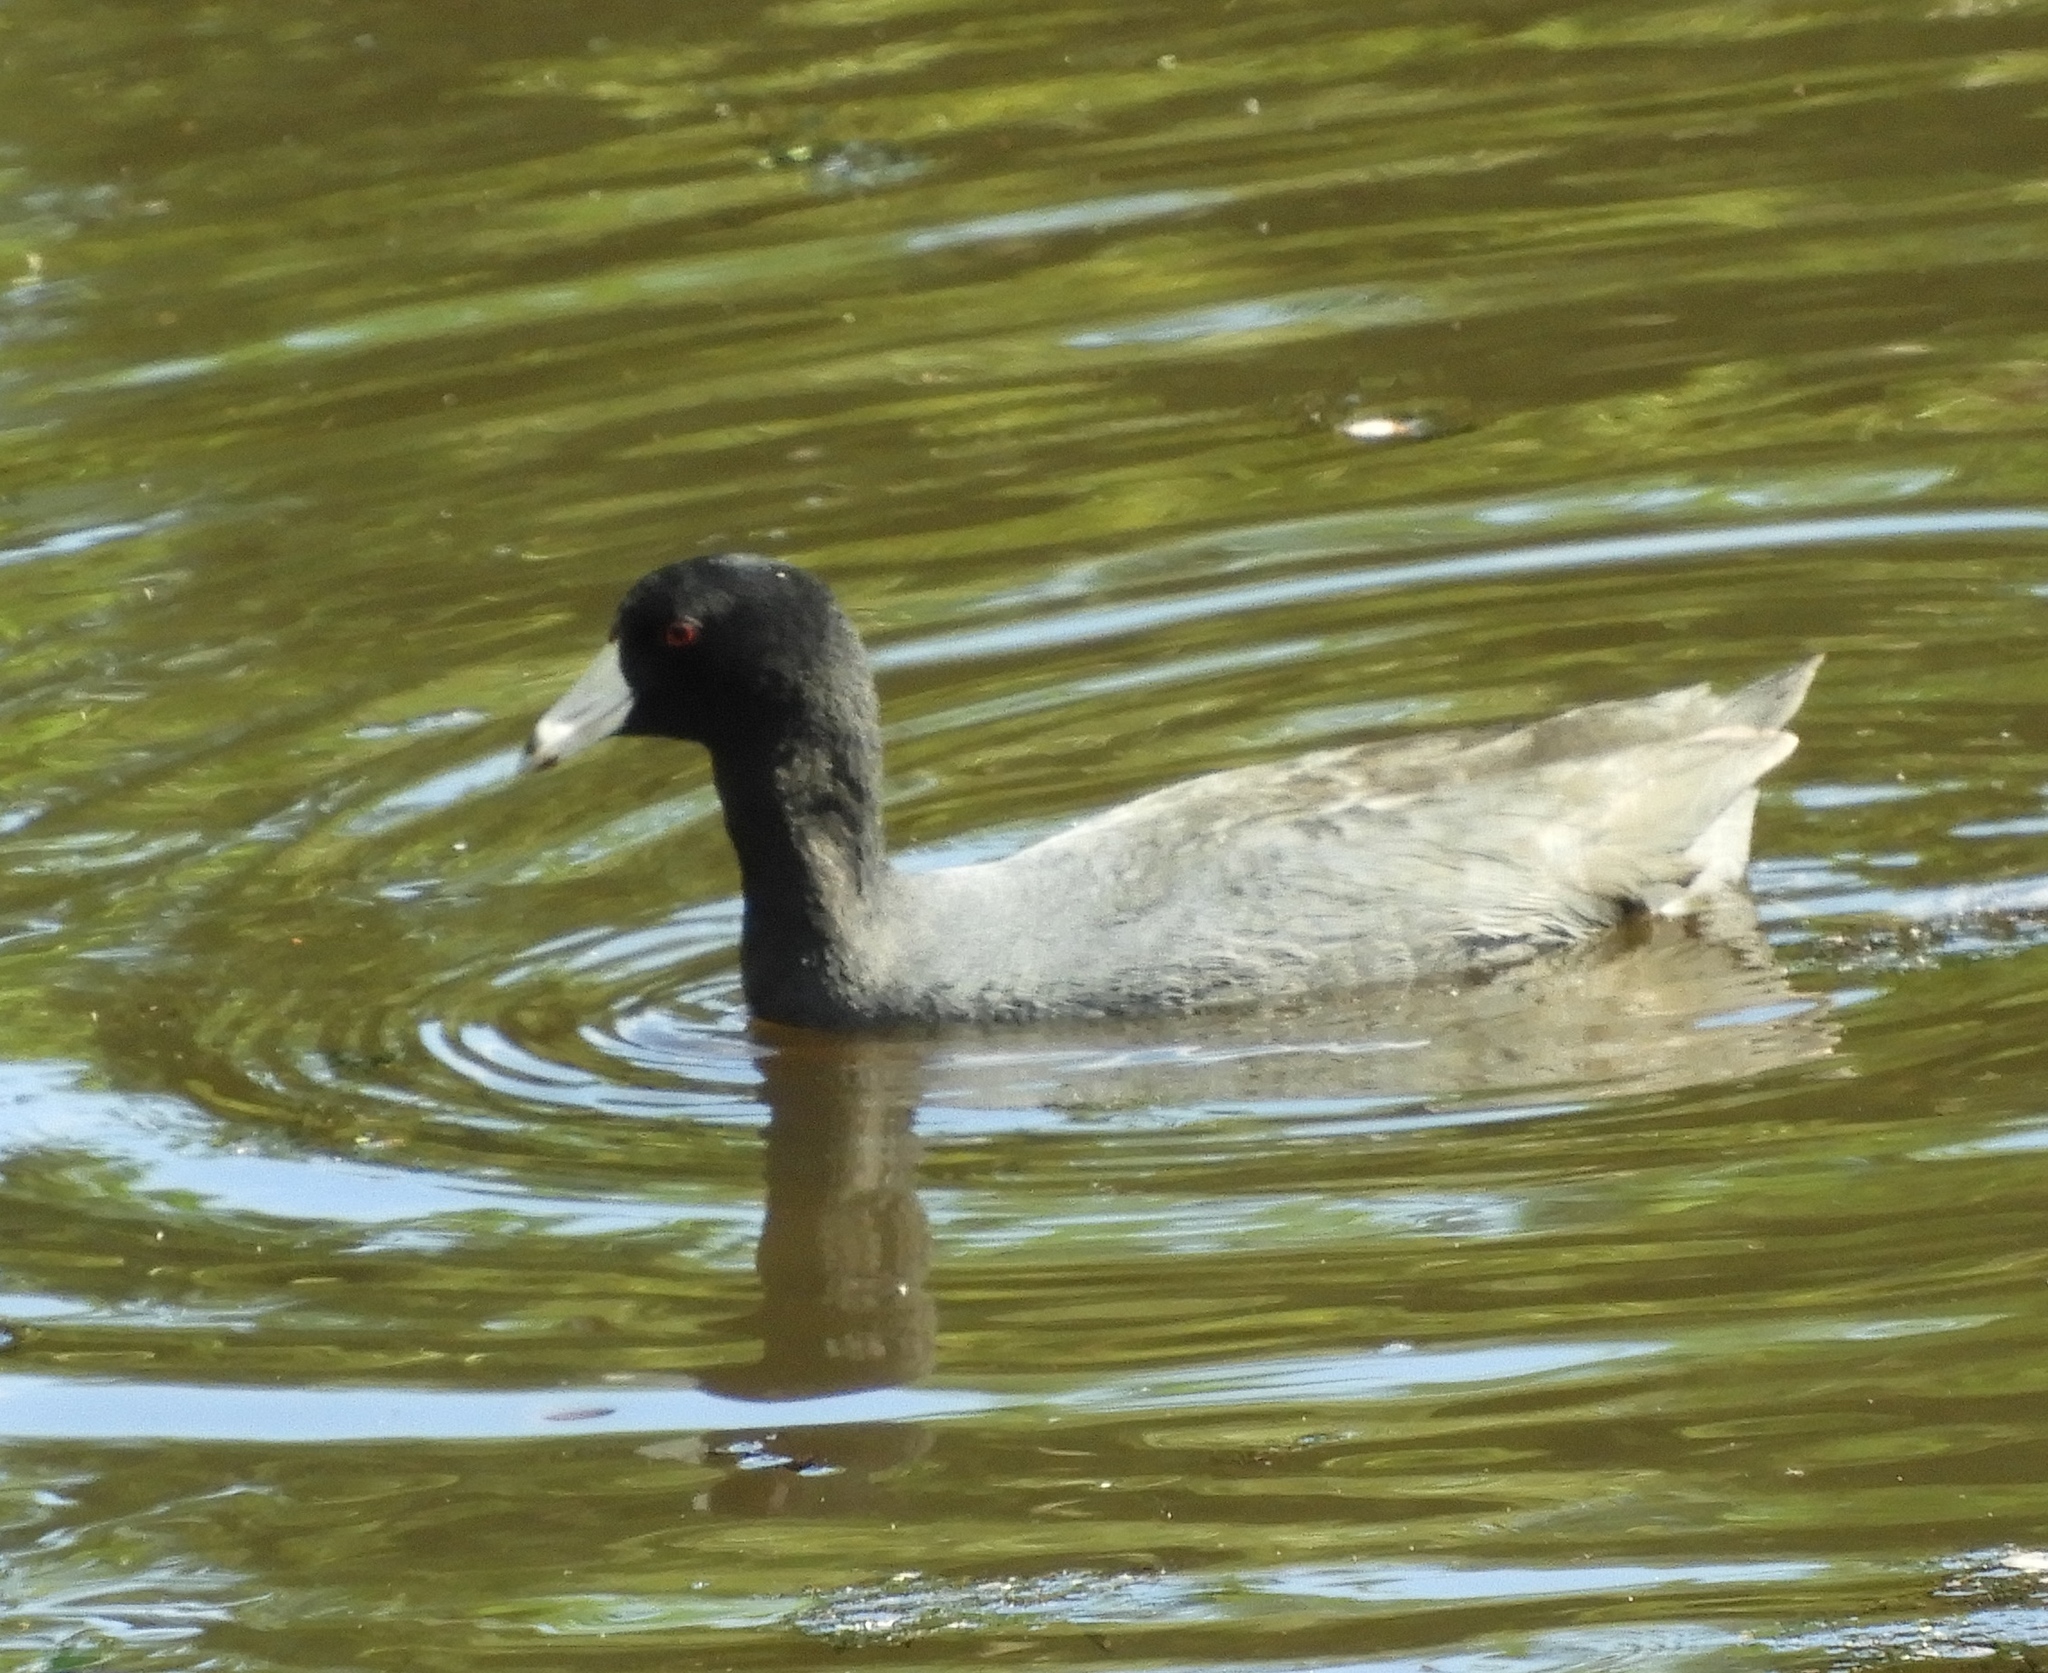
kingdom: Animalia
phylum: Chordata
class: Aves
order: Gruiformes
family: Rallidae
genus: Fulica
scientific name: Fulica americana
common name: American coot
